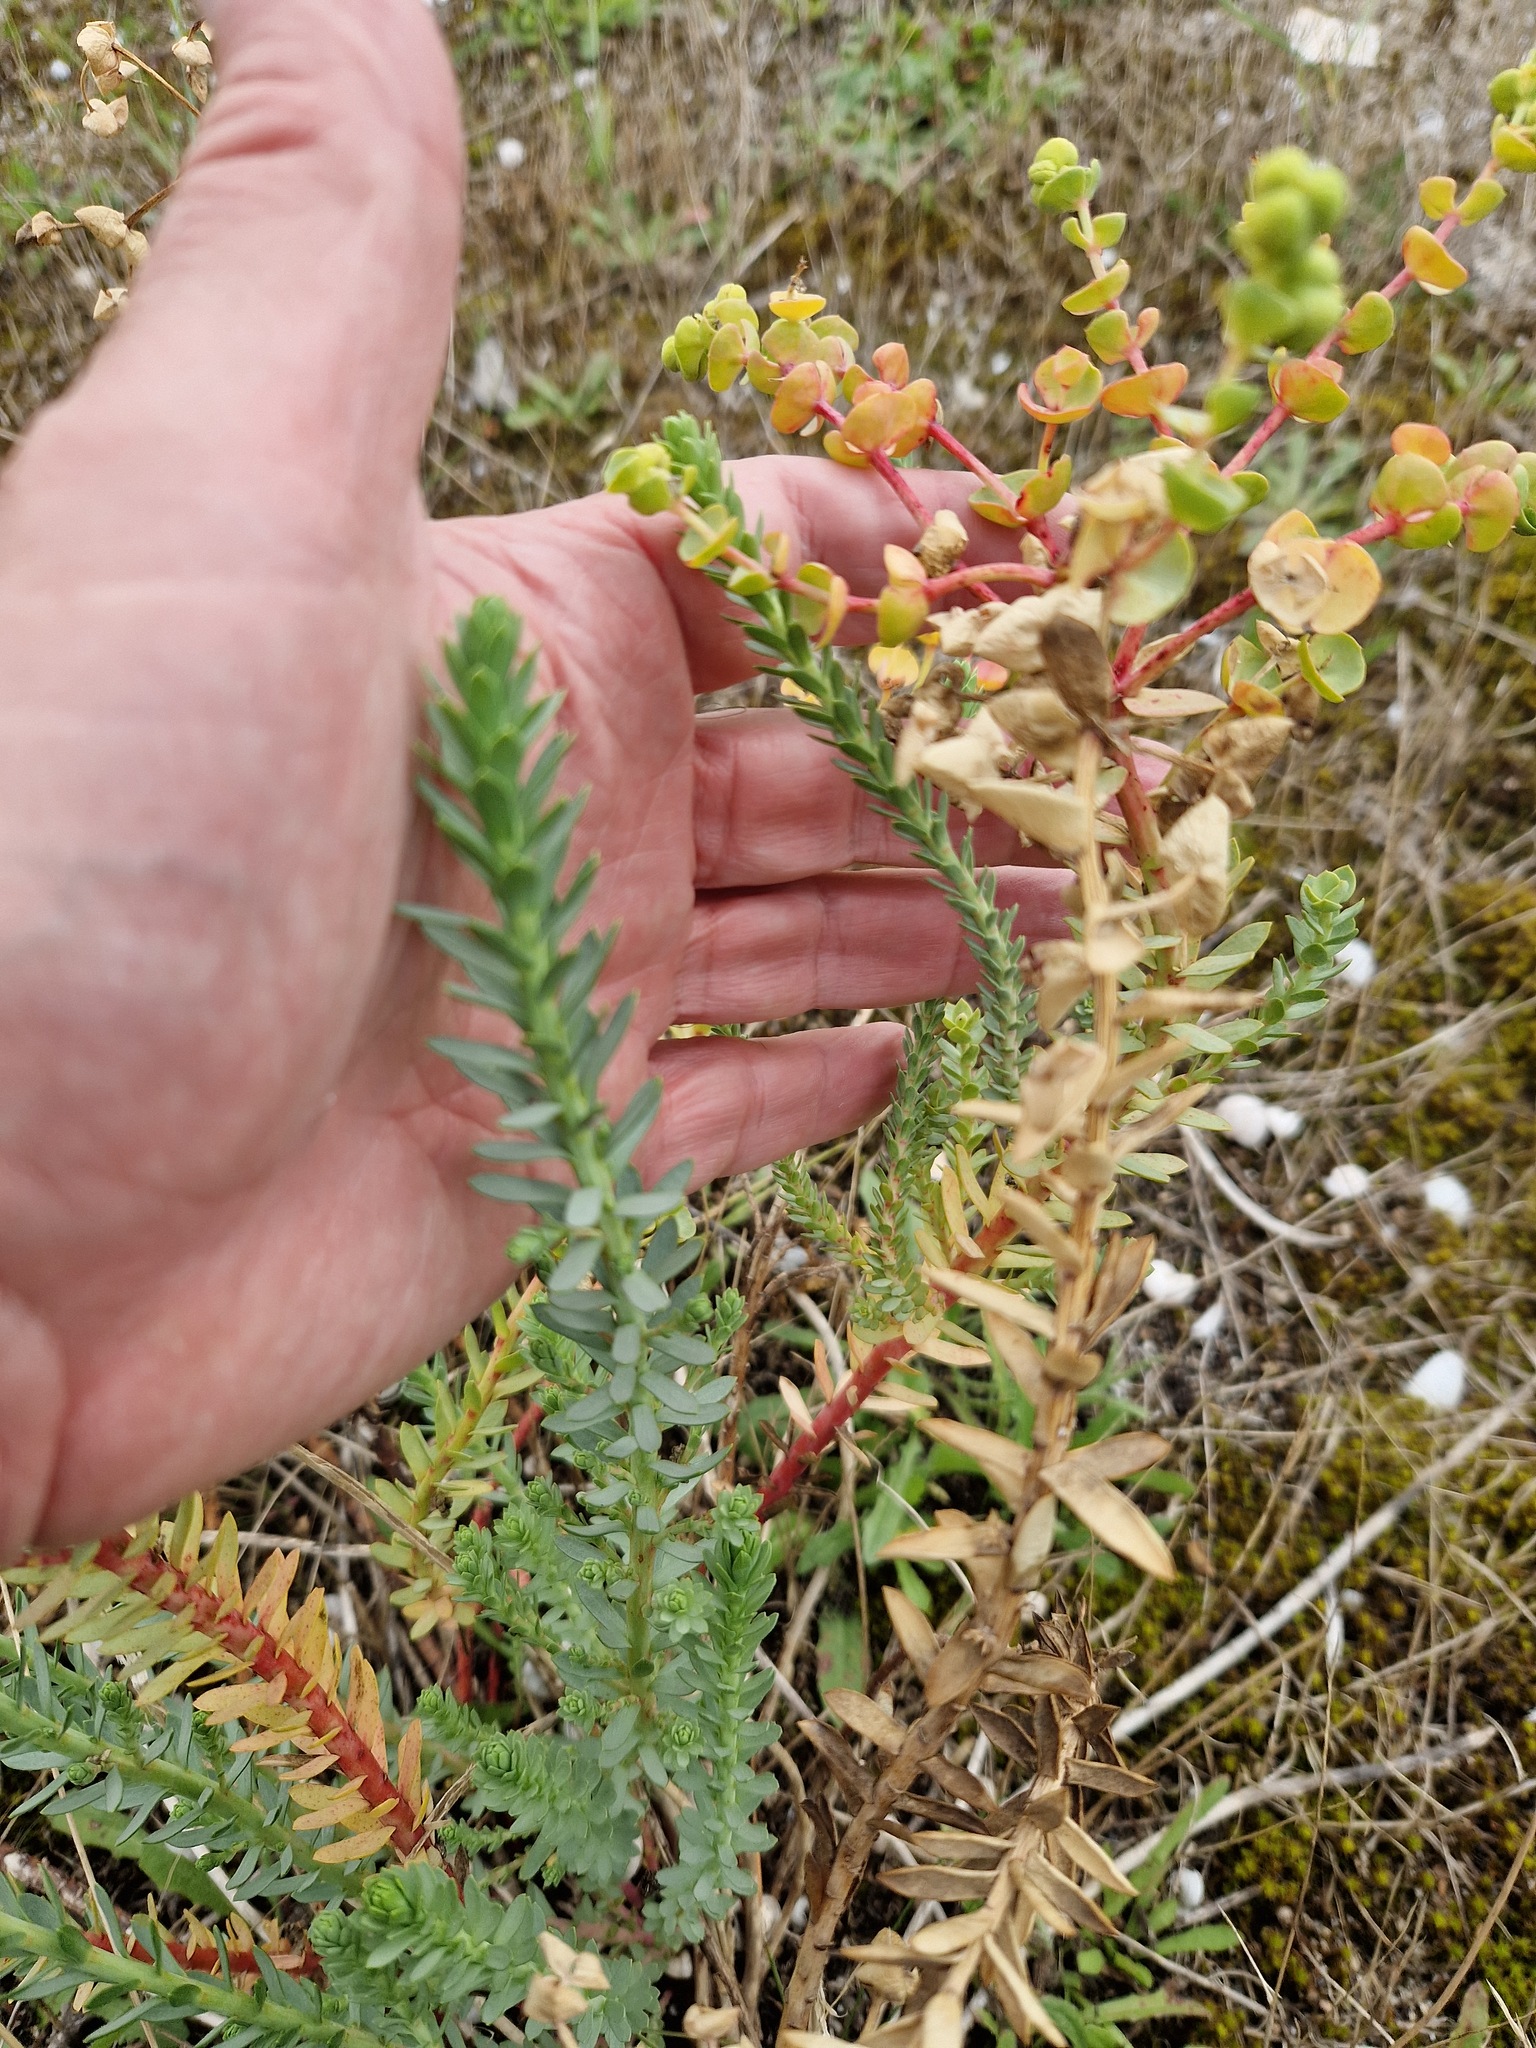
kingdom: Plantae
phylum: Tracheophyta
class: Magnoliopsida
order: Malpighiales
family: Euphorbiaceae
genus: Euphorbia
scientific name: Euphorbia paralias
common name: Sea spurge
